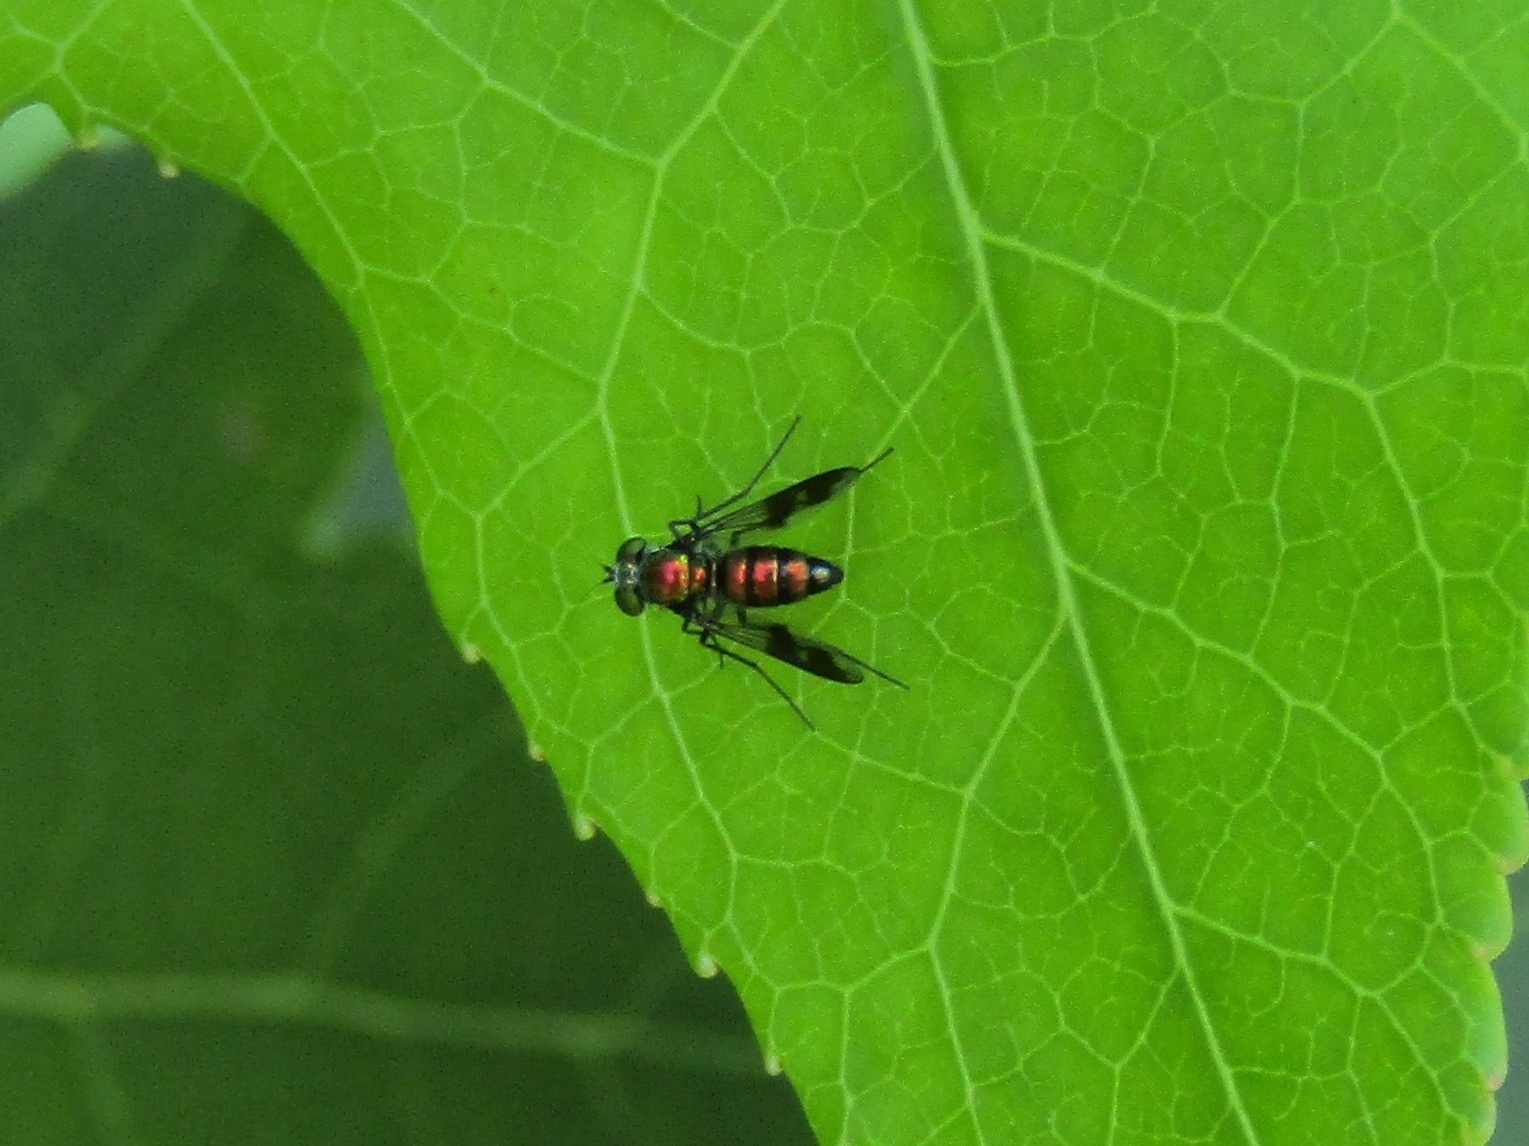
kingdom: Animalia
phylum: Arthropoda
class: Insecta
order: Diptera
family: Dolichopodidae
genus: Condylostylus
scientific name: Condylostylus patibulatus
